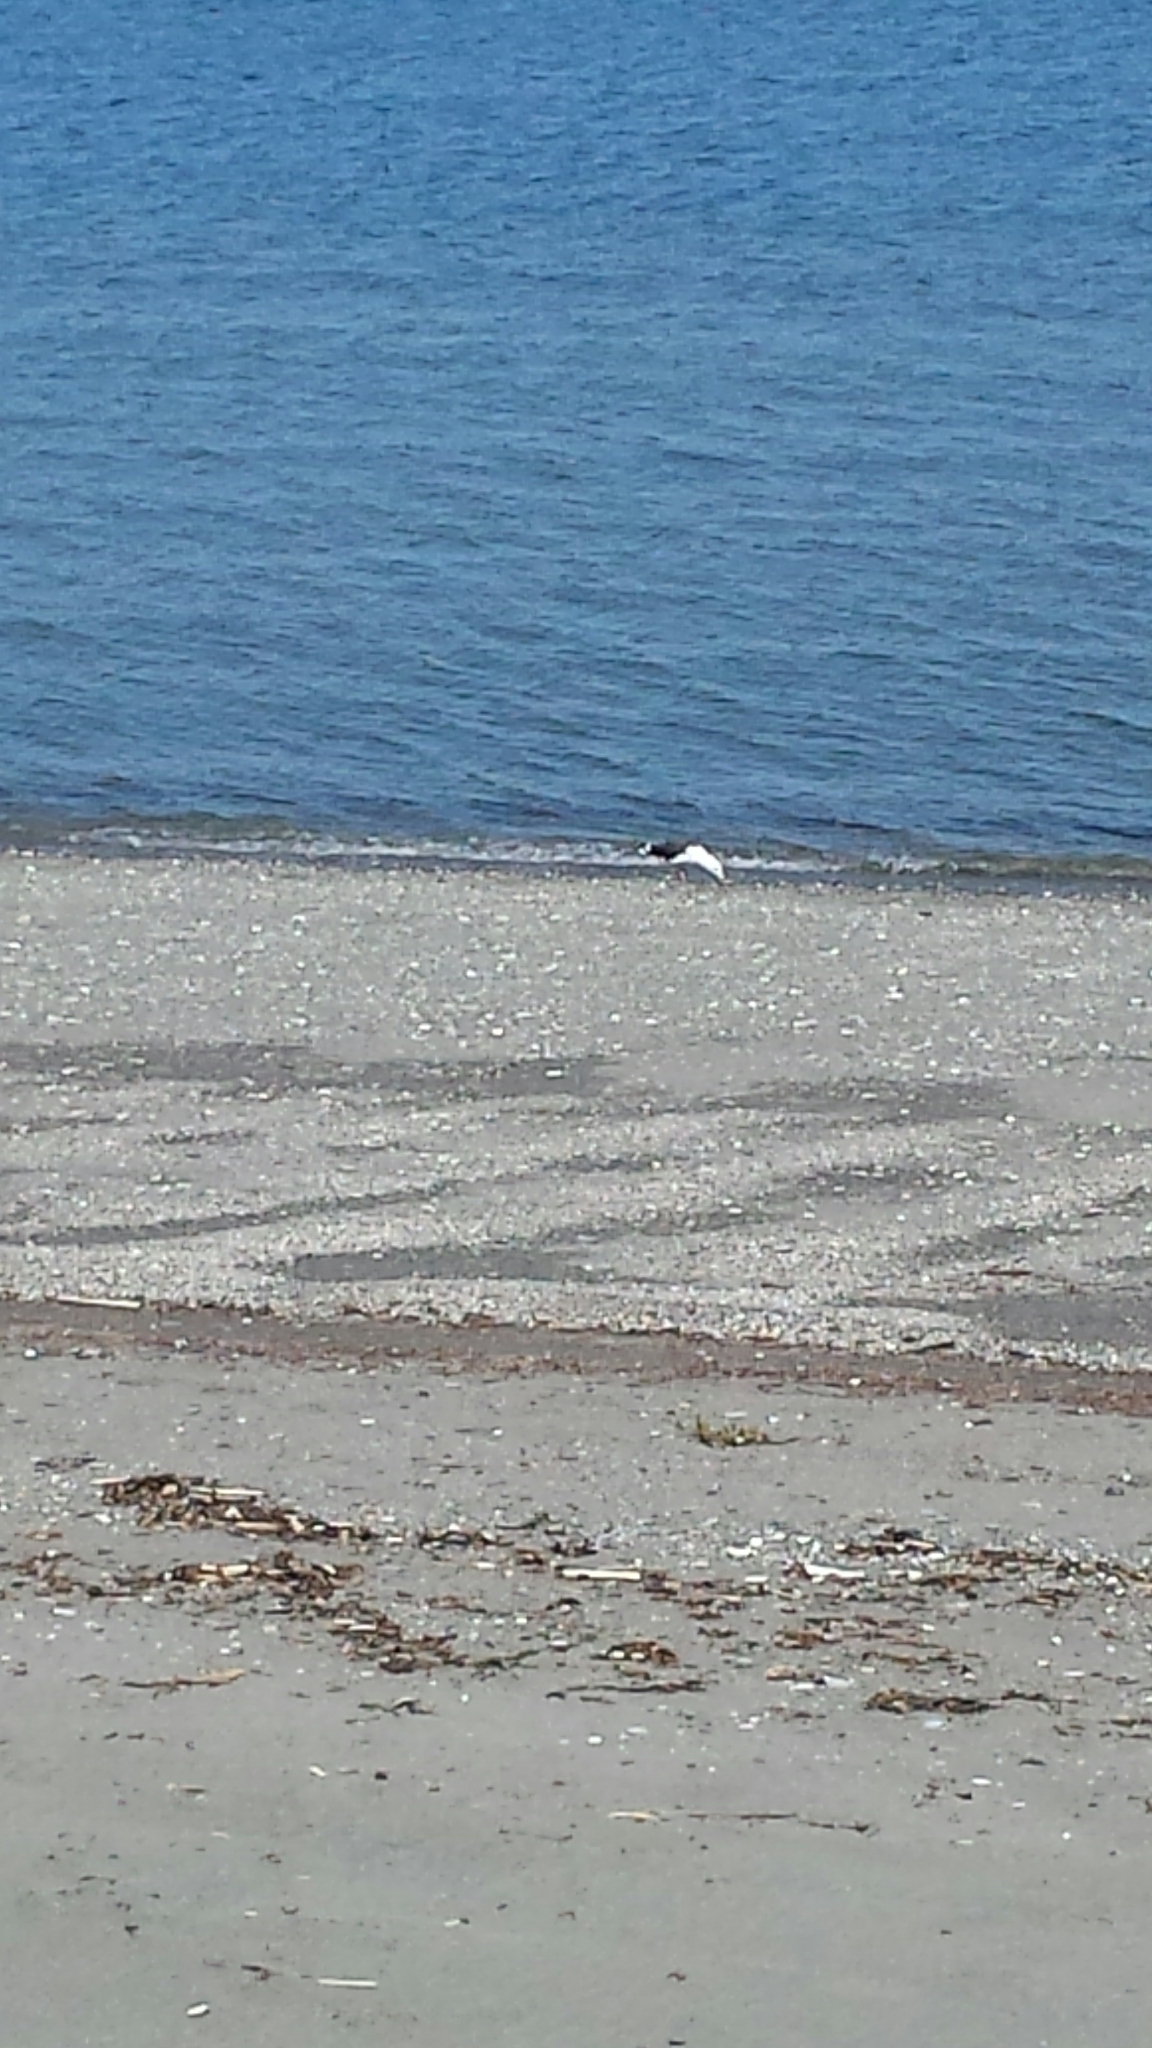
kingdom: Animalia
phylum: Chordata
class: Aves
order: Charadriiformes
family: Laridae
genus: Larus
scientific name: Larus marinus
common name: Great black-backed gull
